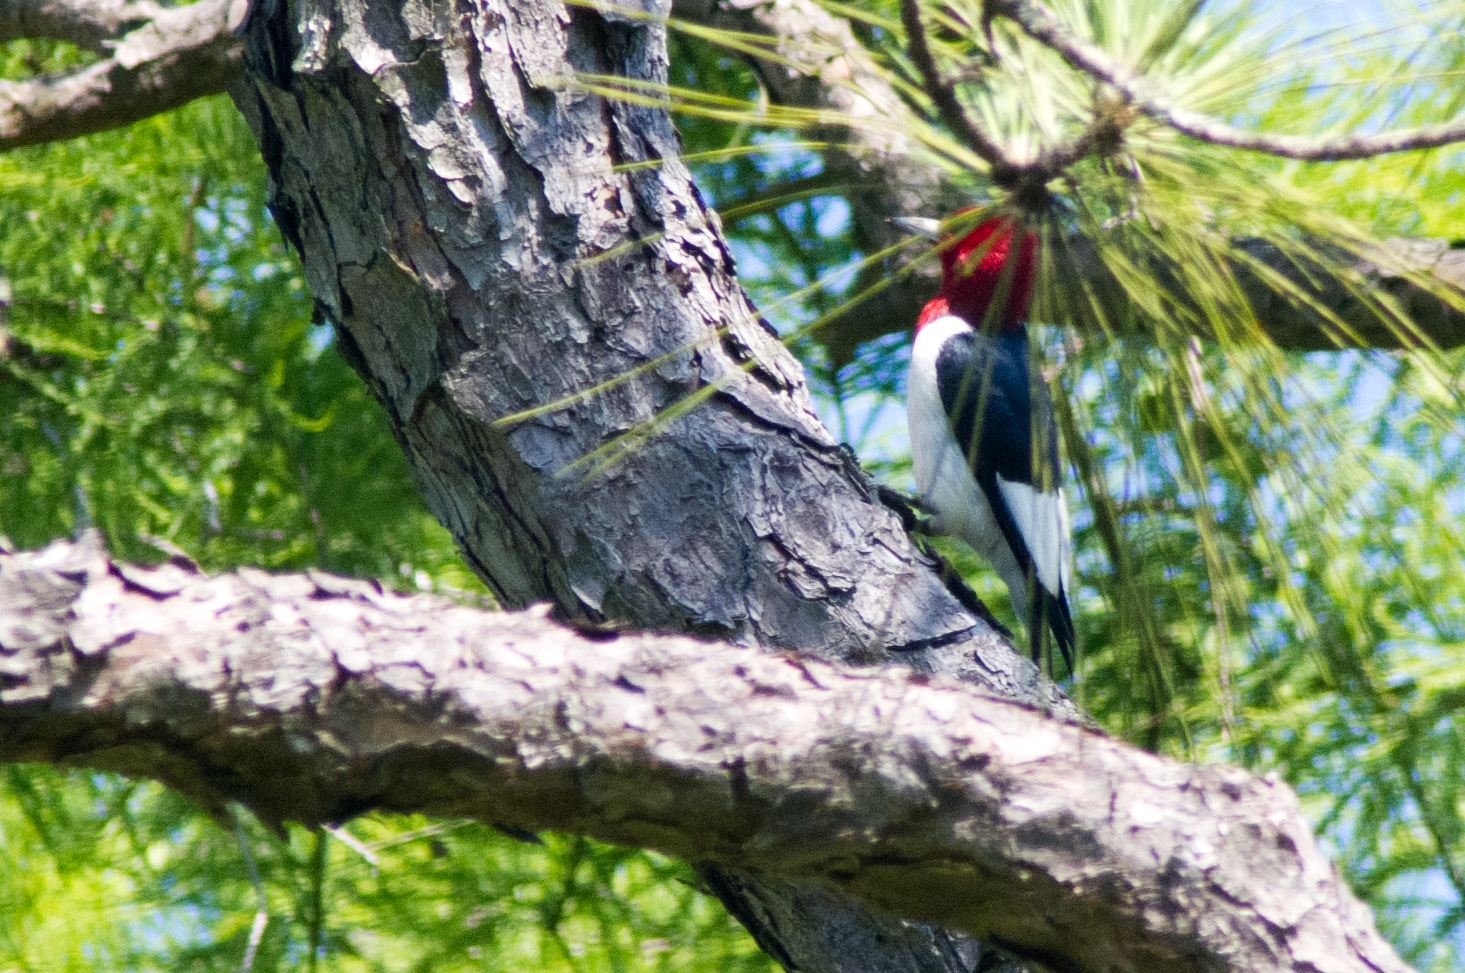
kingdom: Animalia
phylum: Chordata
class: Aves
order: Piciformes
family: Picidae
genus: Melanerpes
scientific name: Melanerpes erythrocephalus
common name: Red-headed woodpecker
